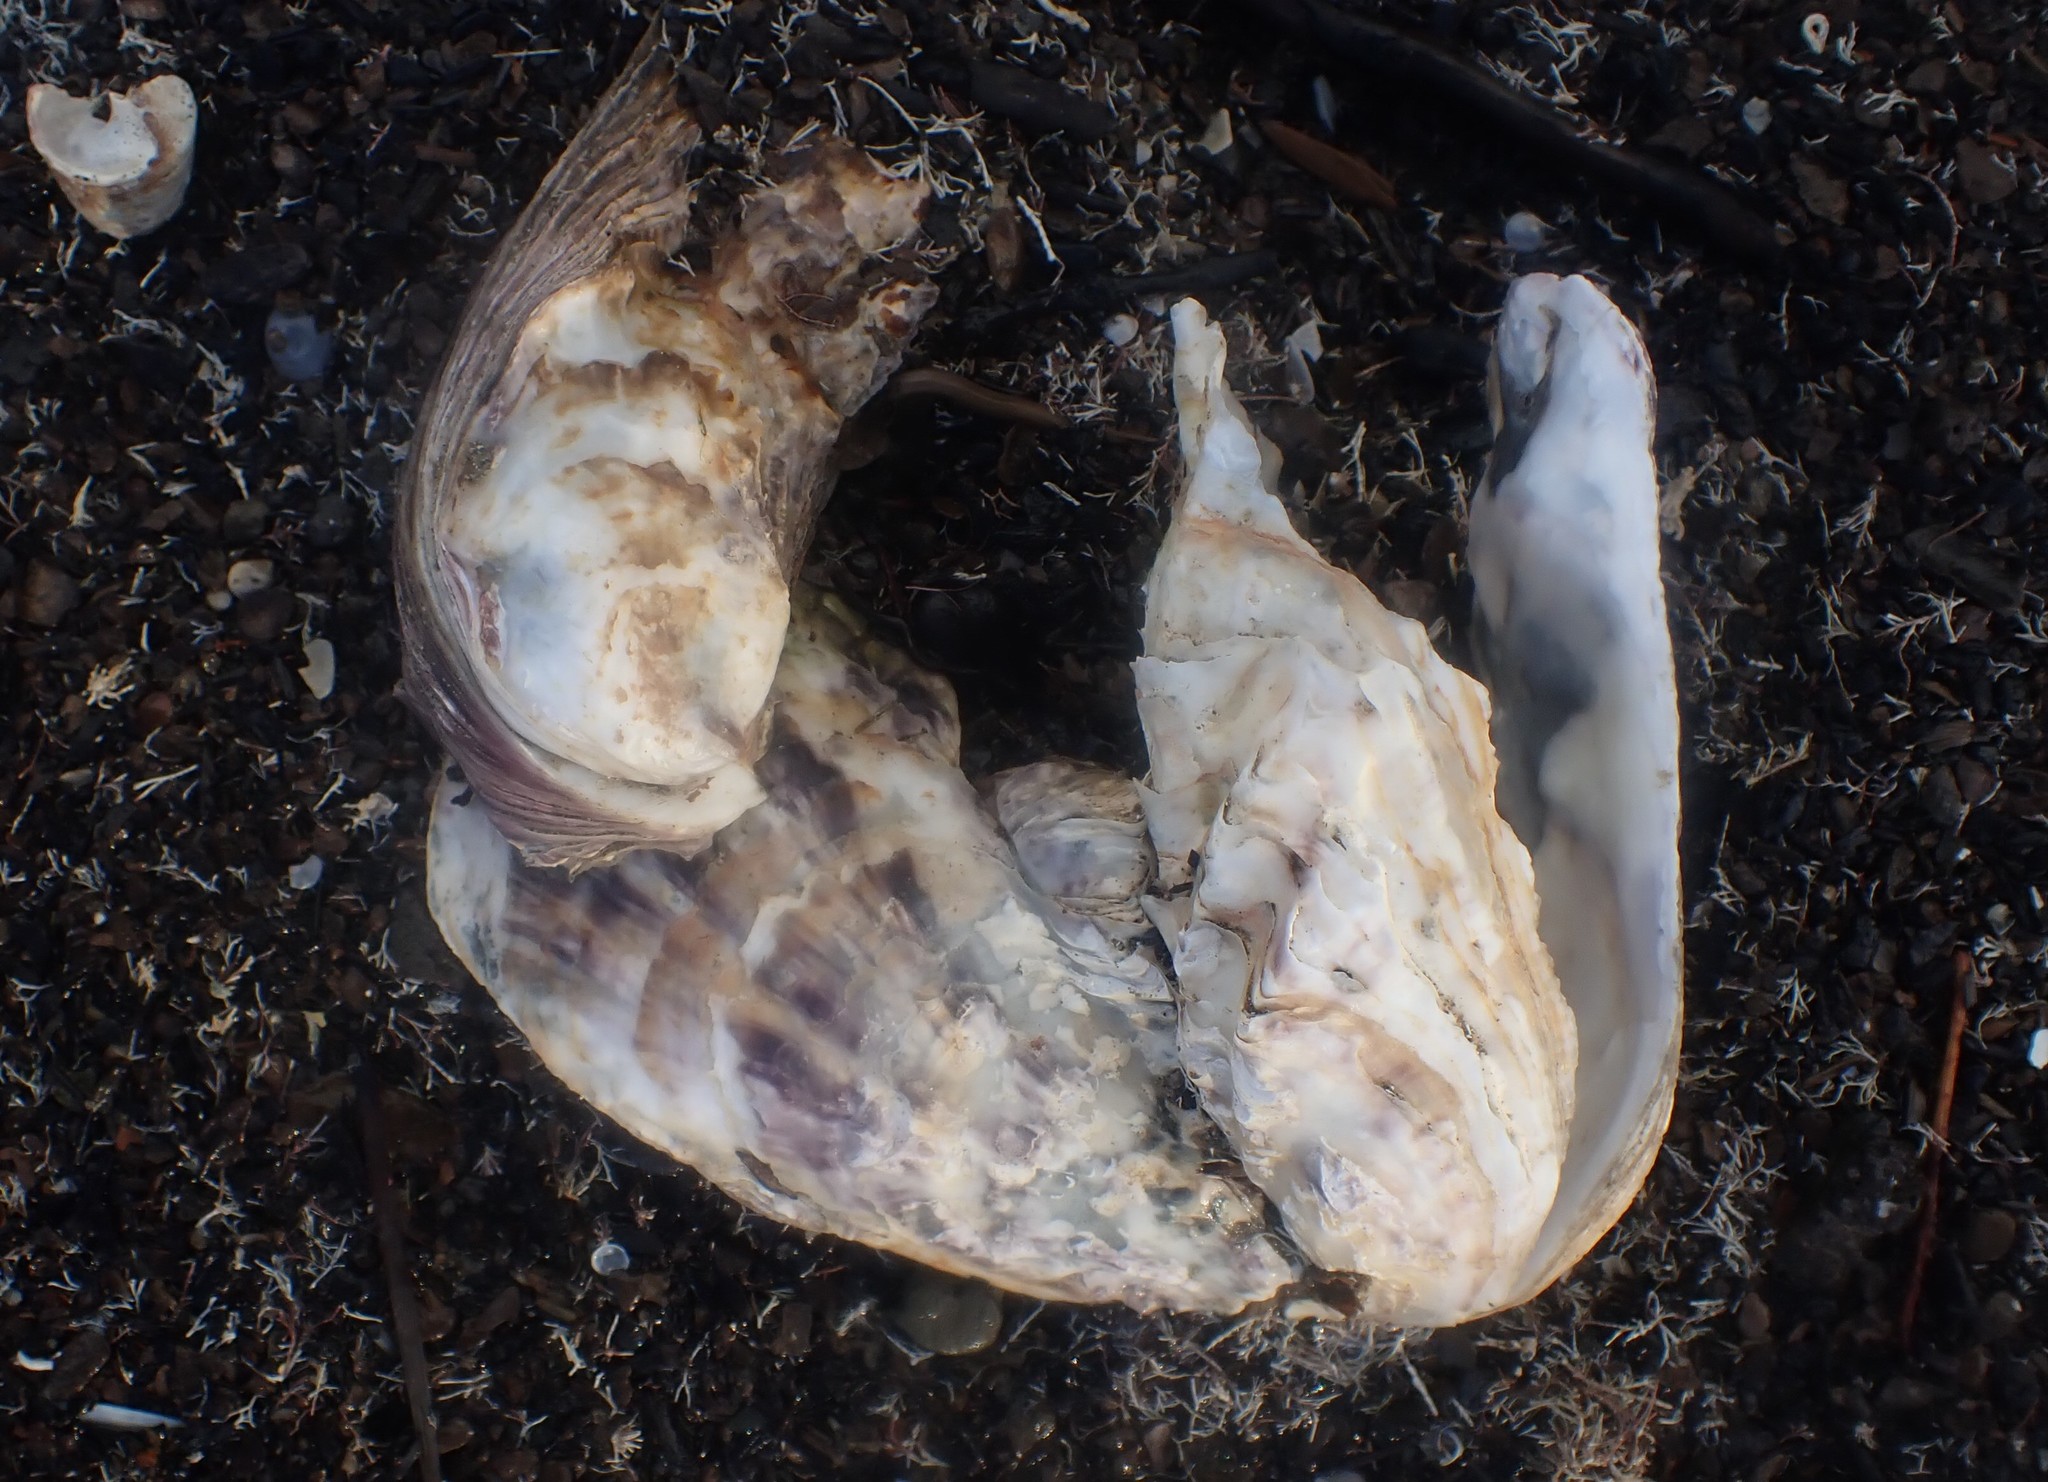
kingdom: Animalia
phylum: Mollusca
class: Bivalvia
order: Ostreida
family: Ostreidae
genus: Magallana
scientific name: Magallana gigas
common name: Pacific oyster
